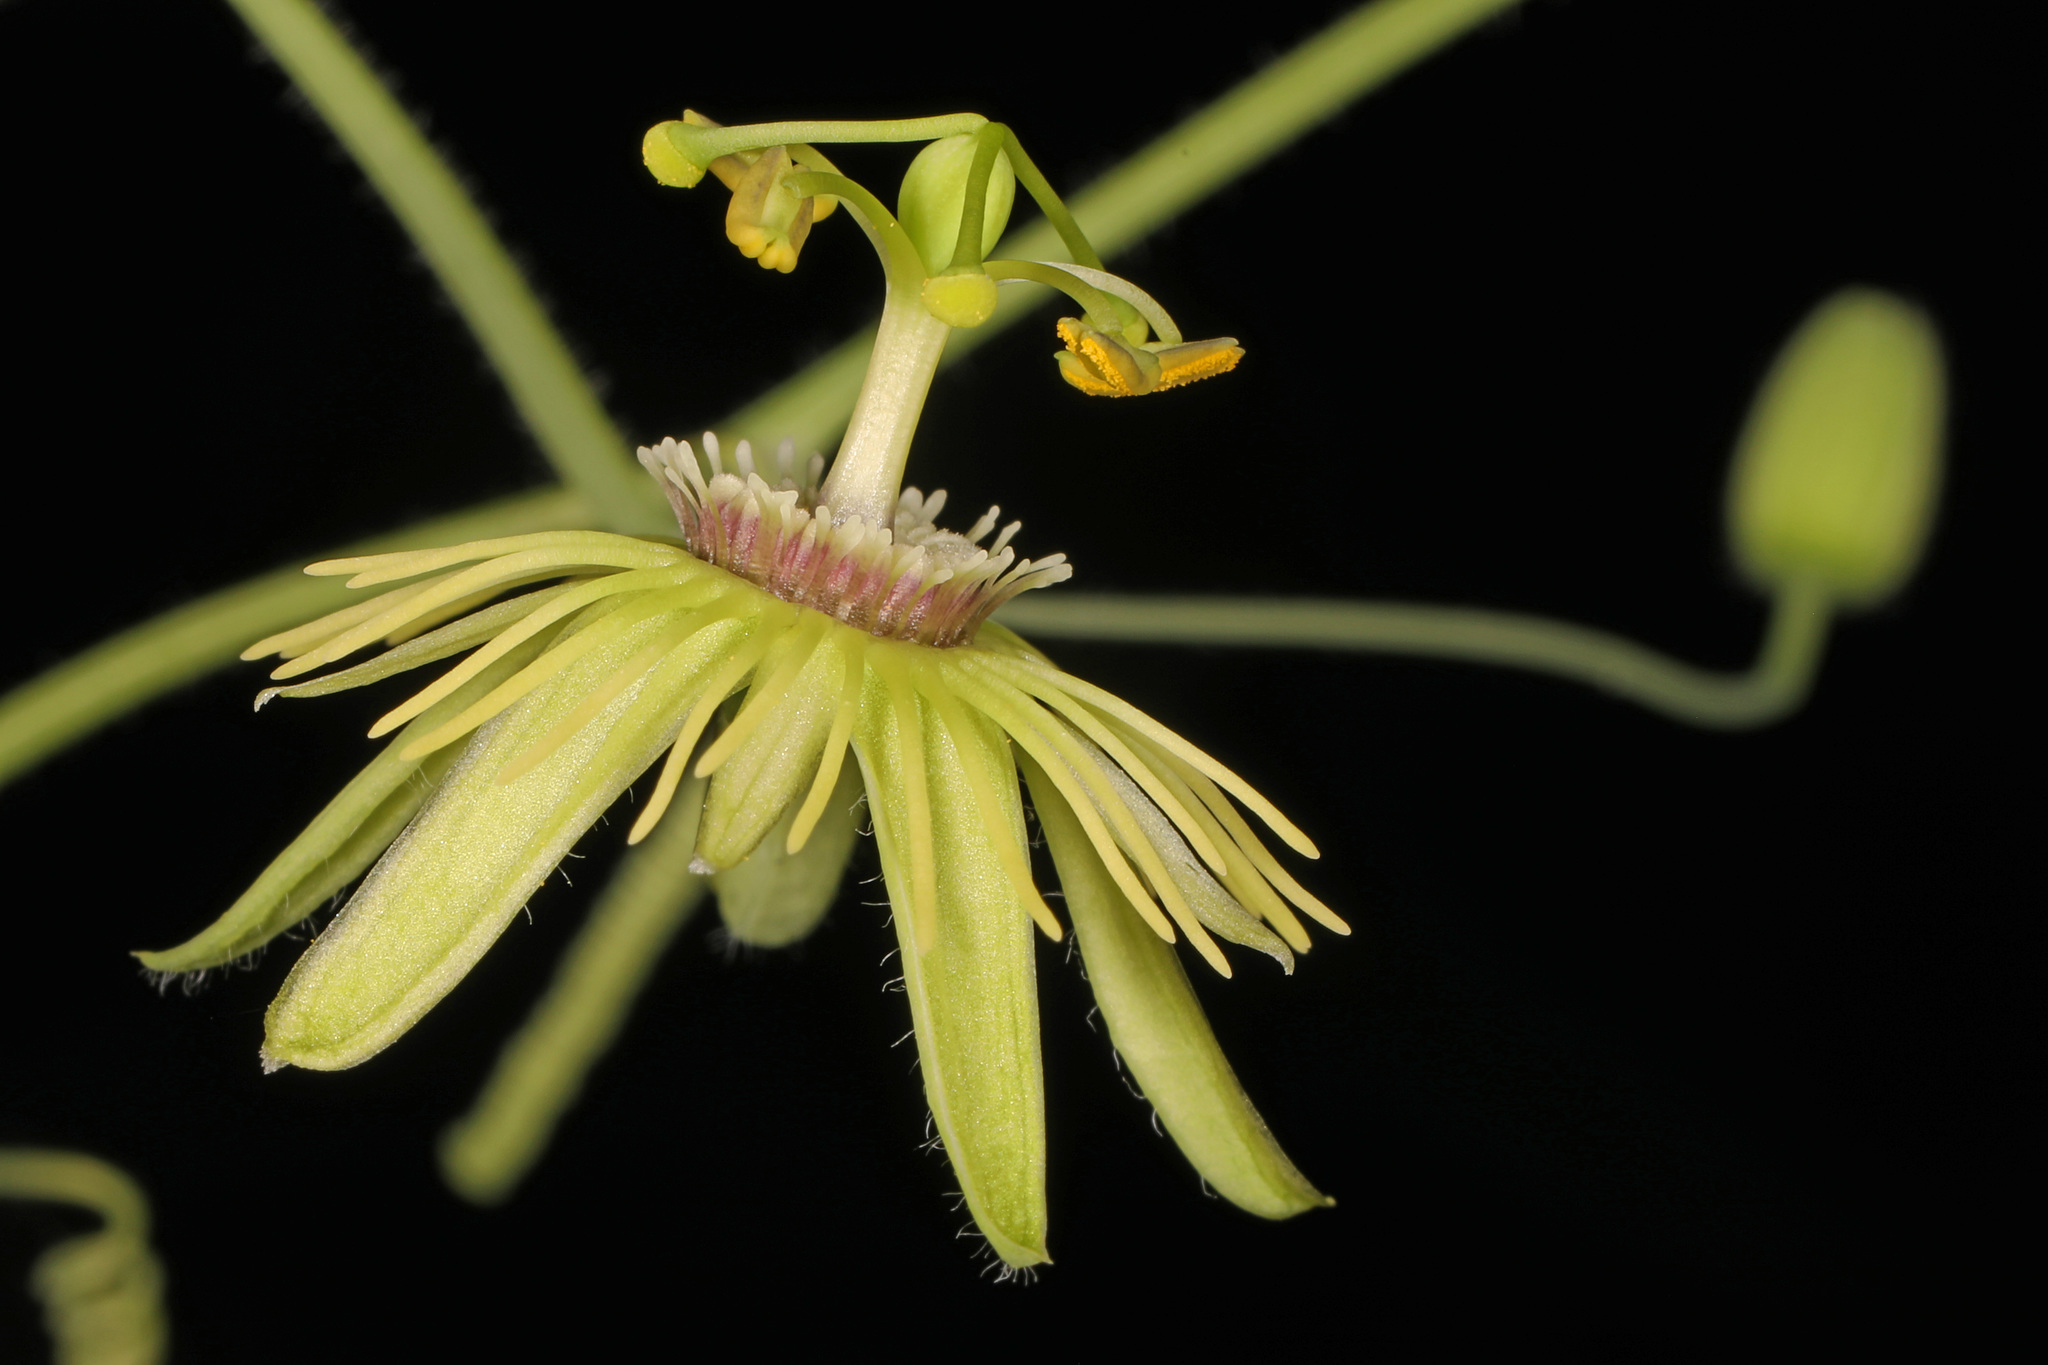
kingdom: Plantae
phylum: Tracheophyta
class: Magnoliopsida
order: Malpighiales
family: Passifloraceae
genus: Passiflora
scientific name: Passiflora lutea
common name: Yellow passionflower
